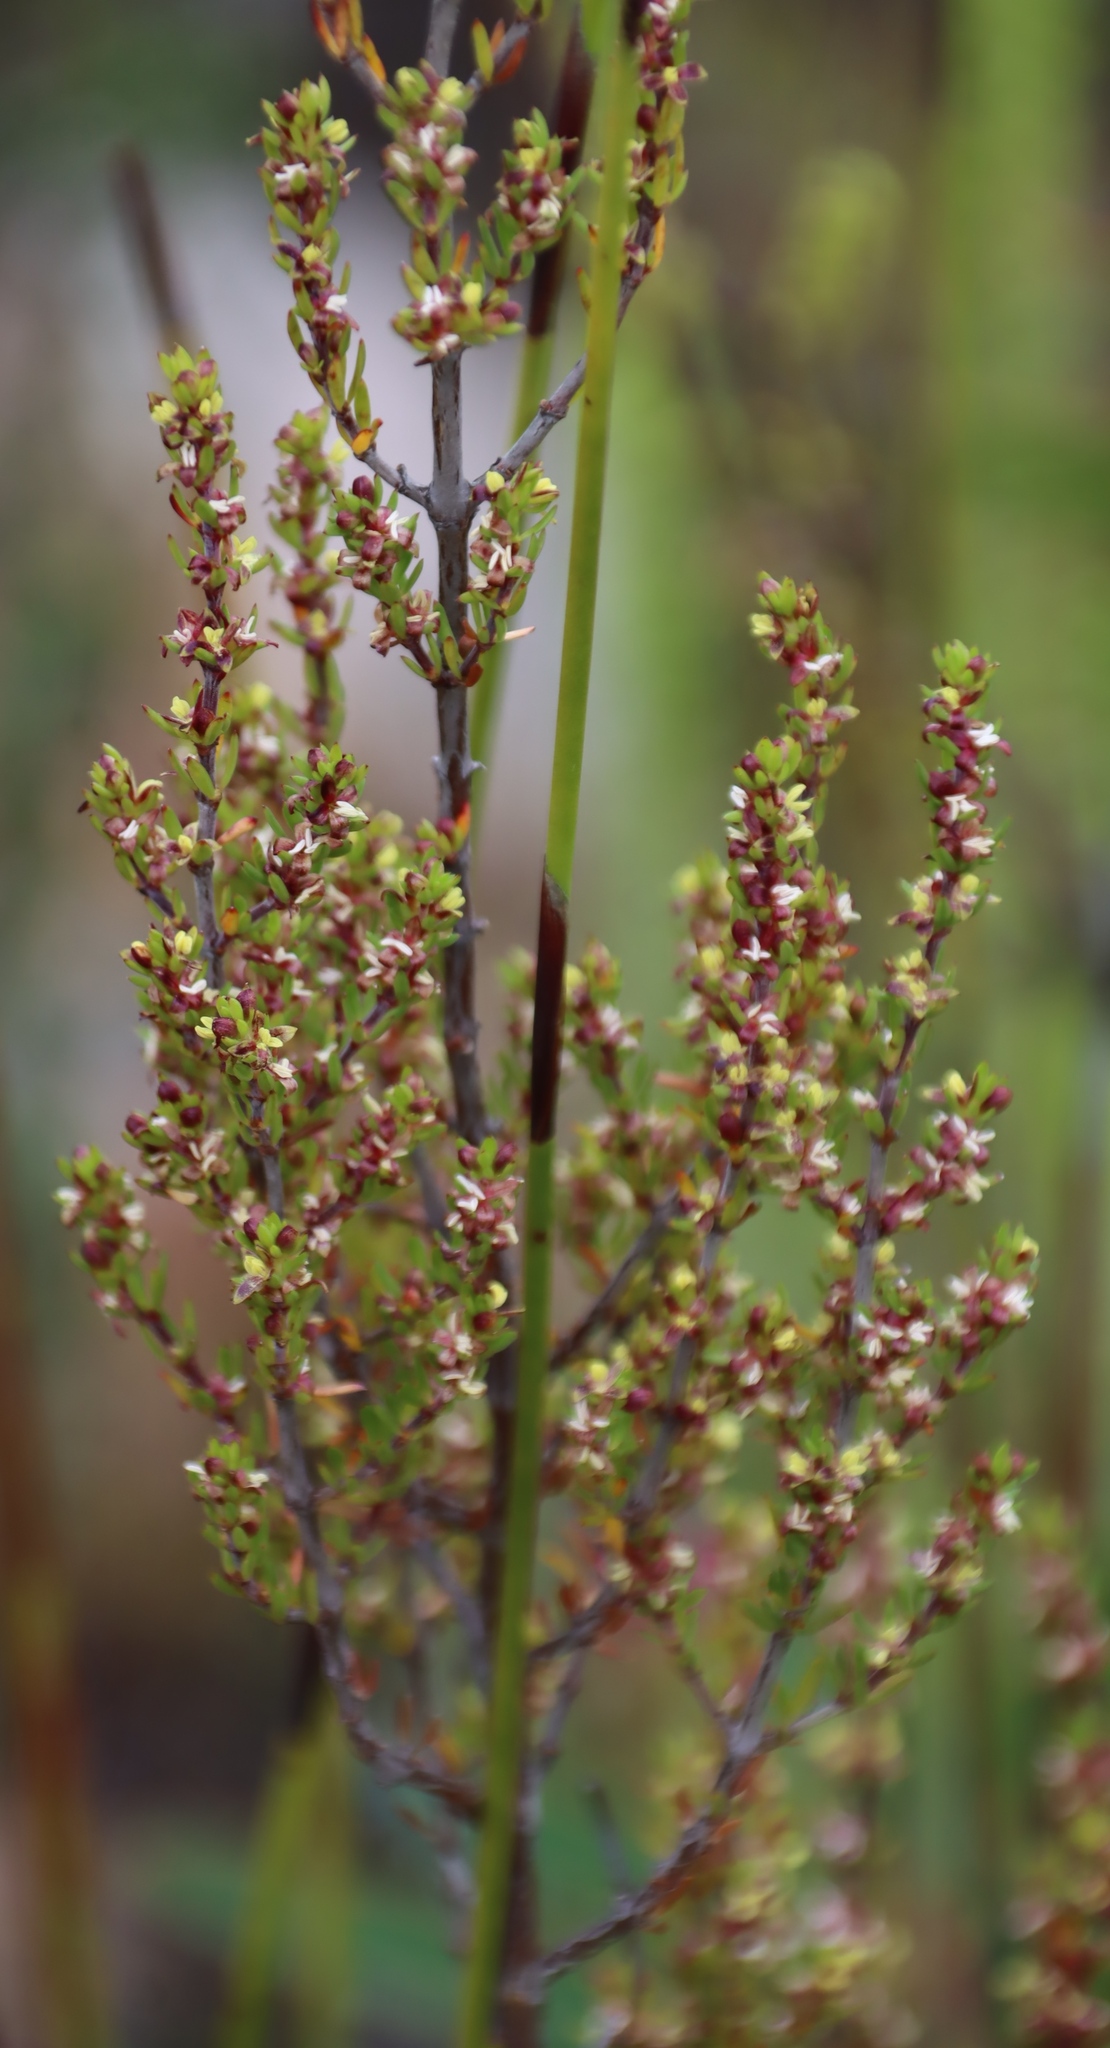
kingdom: Plantae
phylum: Tracheophyta
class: Magnoliopsida
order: Gentianales
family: Rubiaceae
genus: Anthospermum
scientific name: Anthospermum spathulatum
